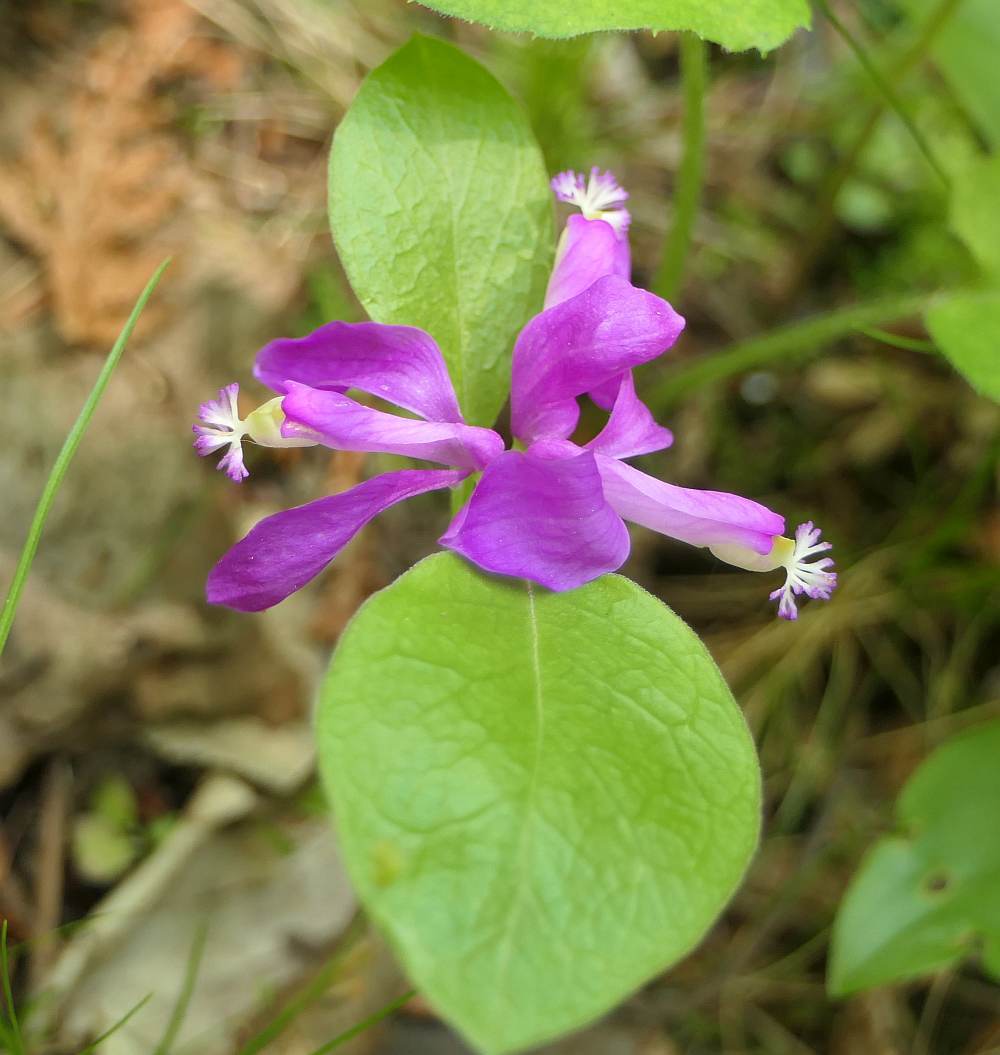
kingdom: Plantae
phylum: Tracheophyta
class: Magnoliopsida
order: Fabales
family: Polygalaceae
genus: Polygaloides
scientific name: Polygaloides paucifolia
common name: Bird-on-the-wing
